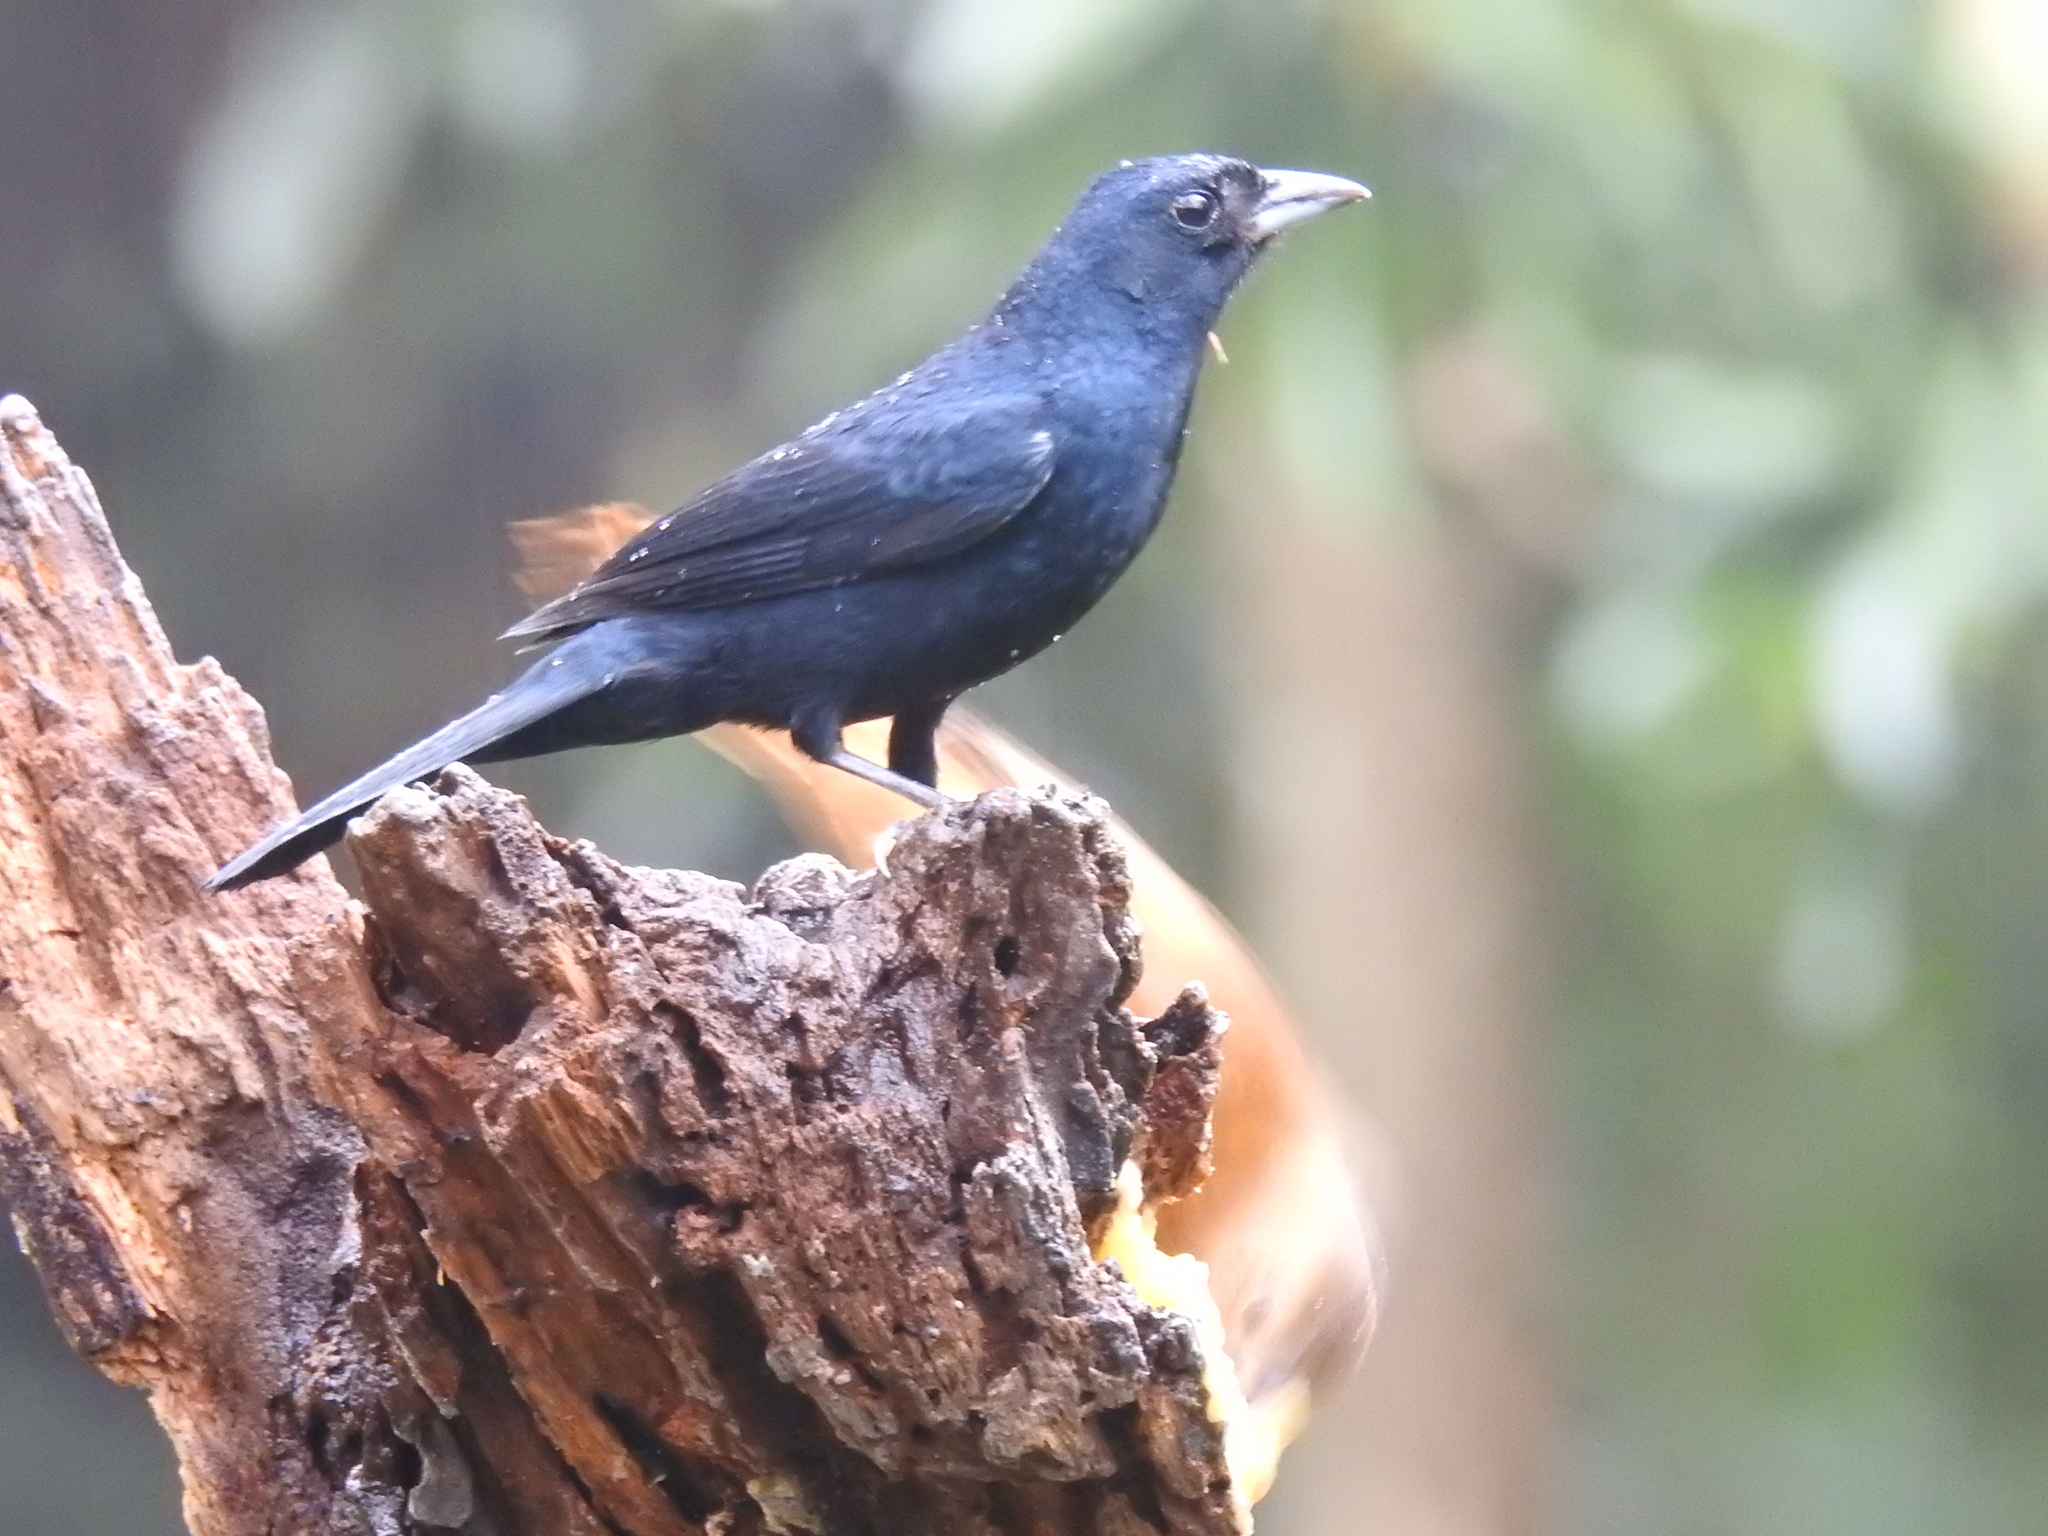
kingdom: Animalia
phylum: Chordata
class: Aves
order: Passeriformes
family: Thraupidae
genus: Tachyphonus
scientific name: Tachyphonus coronatus
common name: Ruby-crowned tanager
